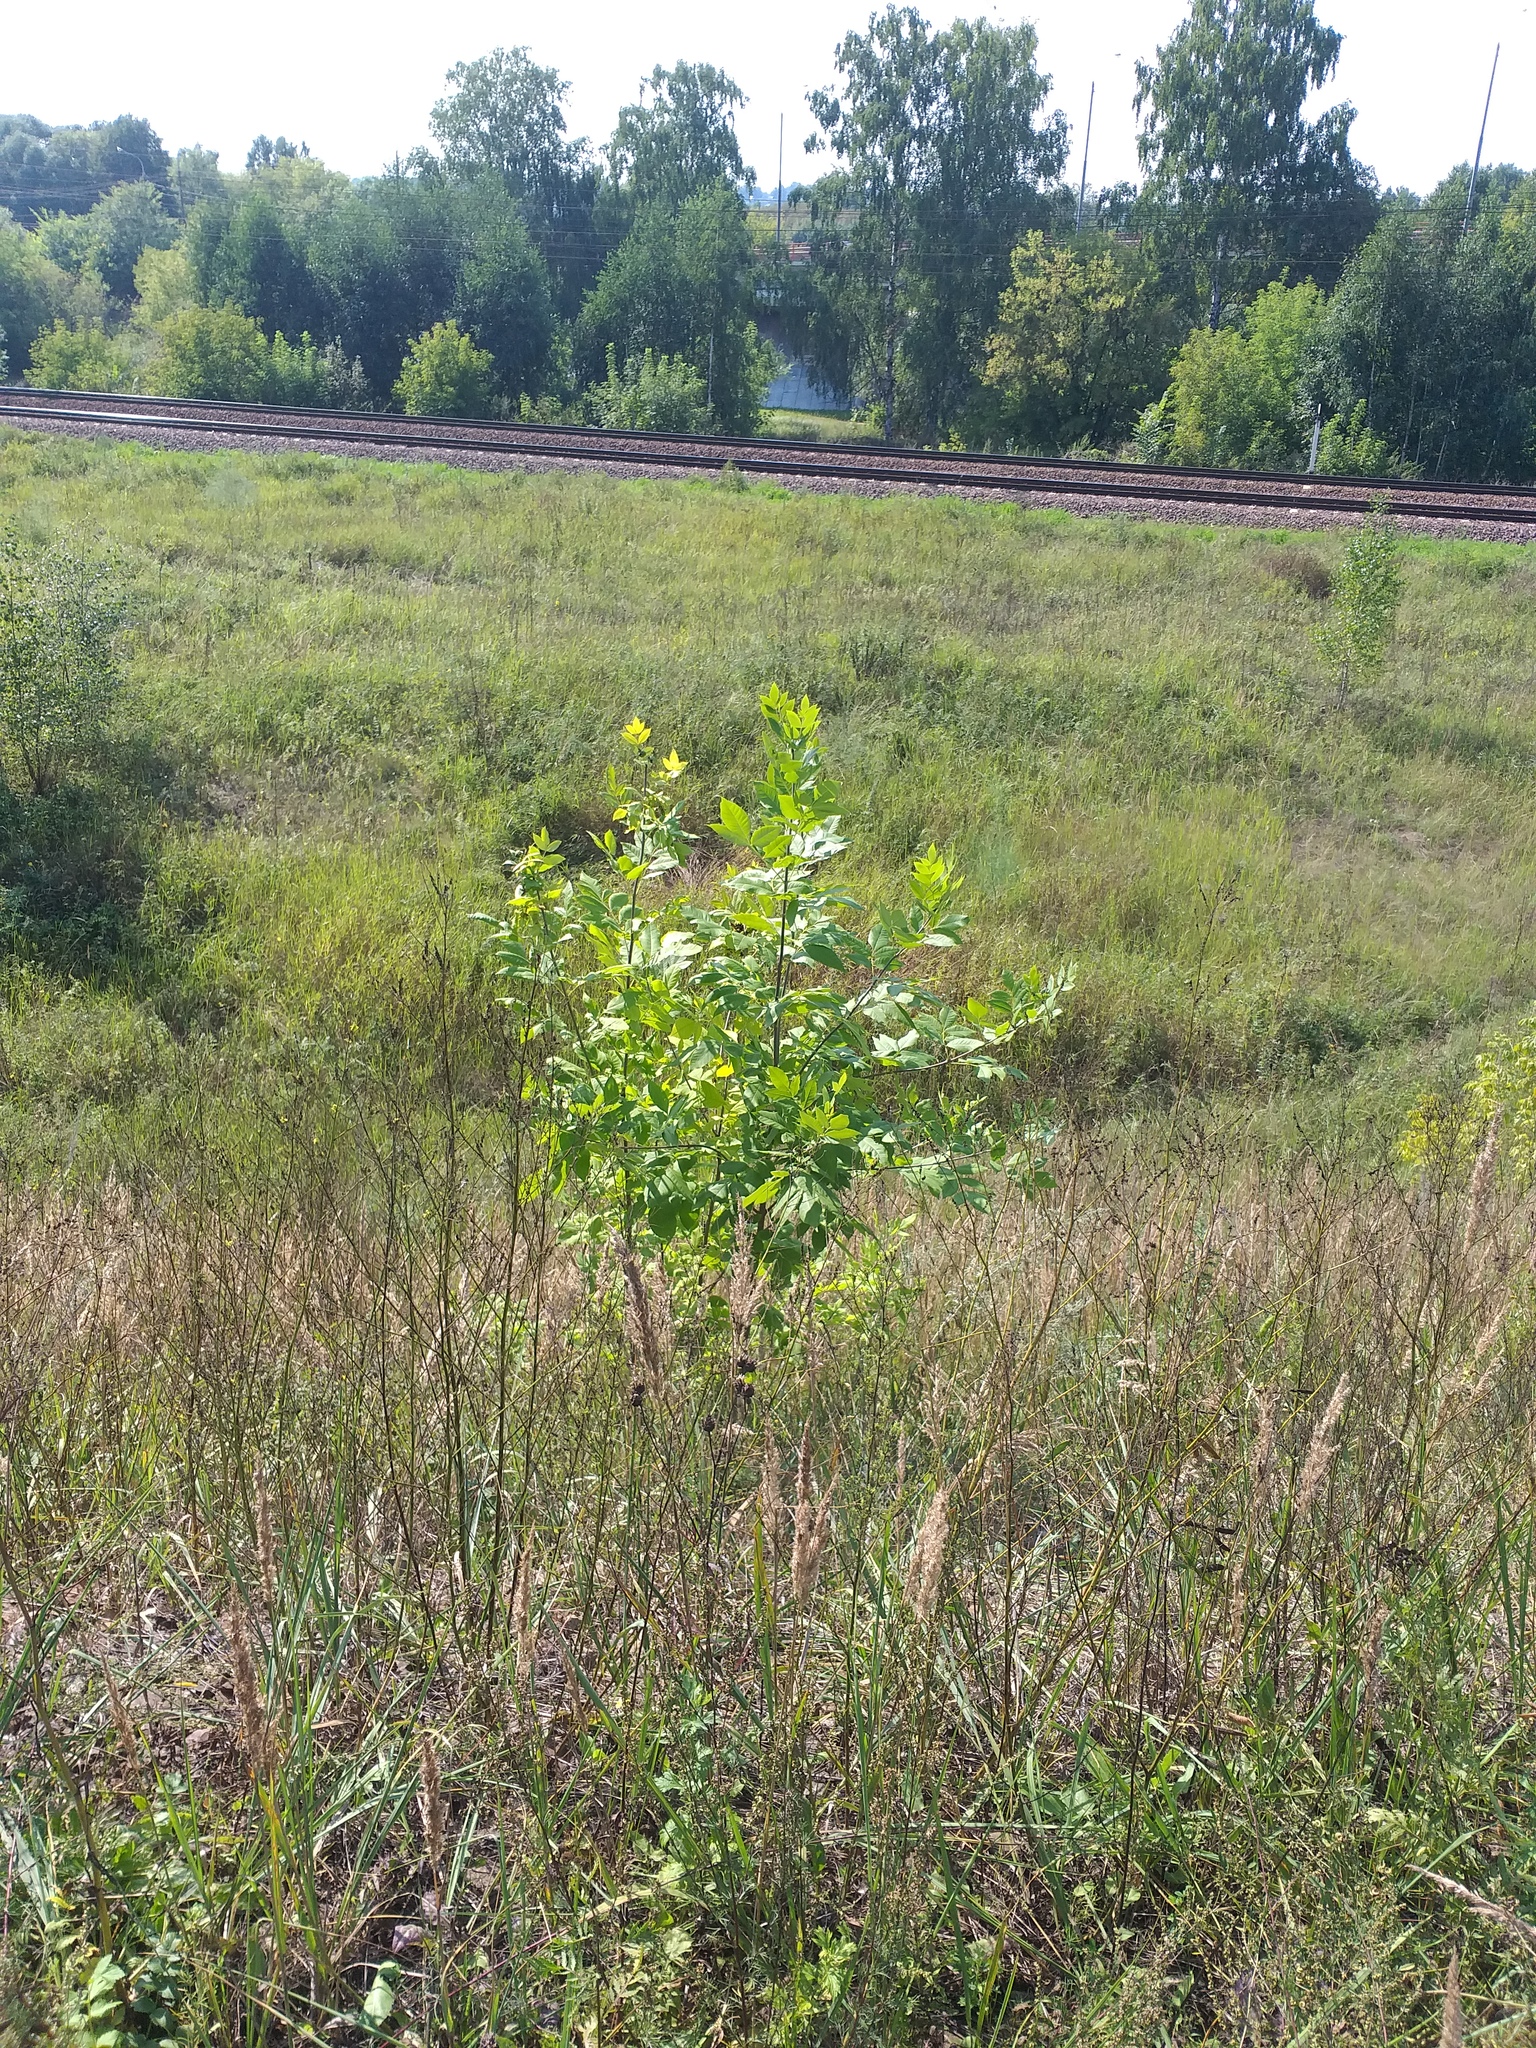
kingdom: Plantae
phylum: Tracheophyta
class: Magnoliopsida
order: Lamiales
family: Oleaceae
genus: Fraxinus
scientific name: Fraxinus pennsylvanica
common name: Green ash
